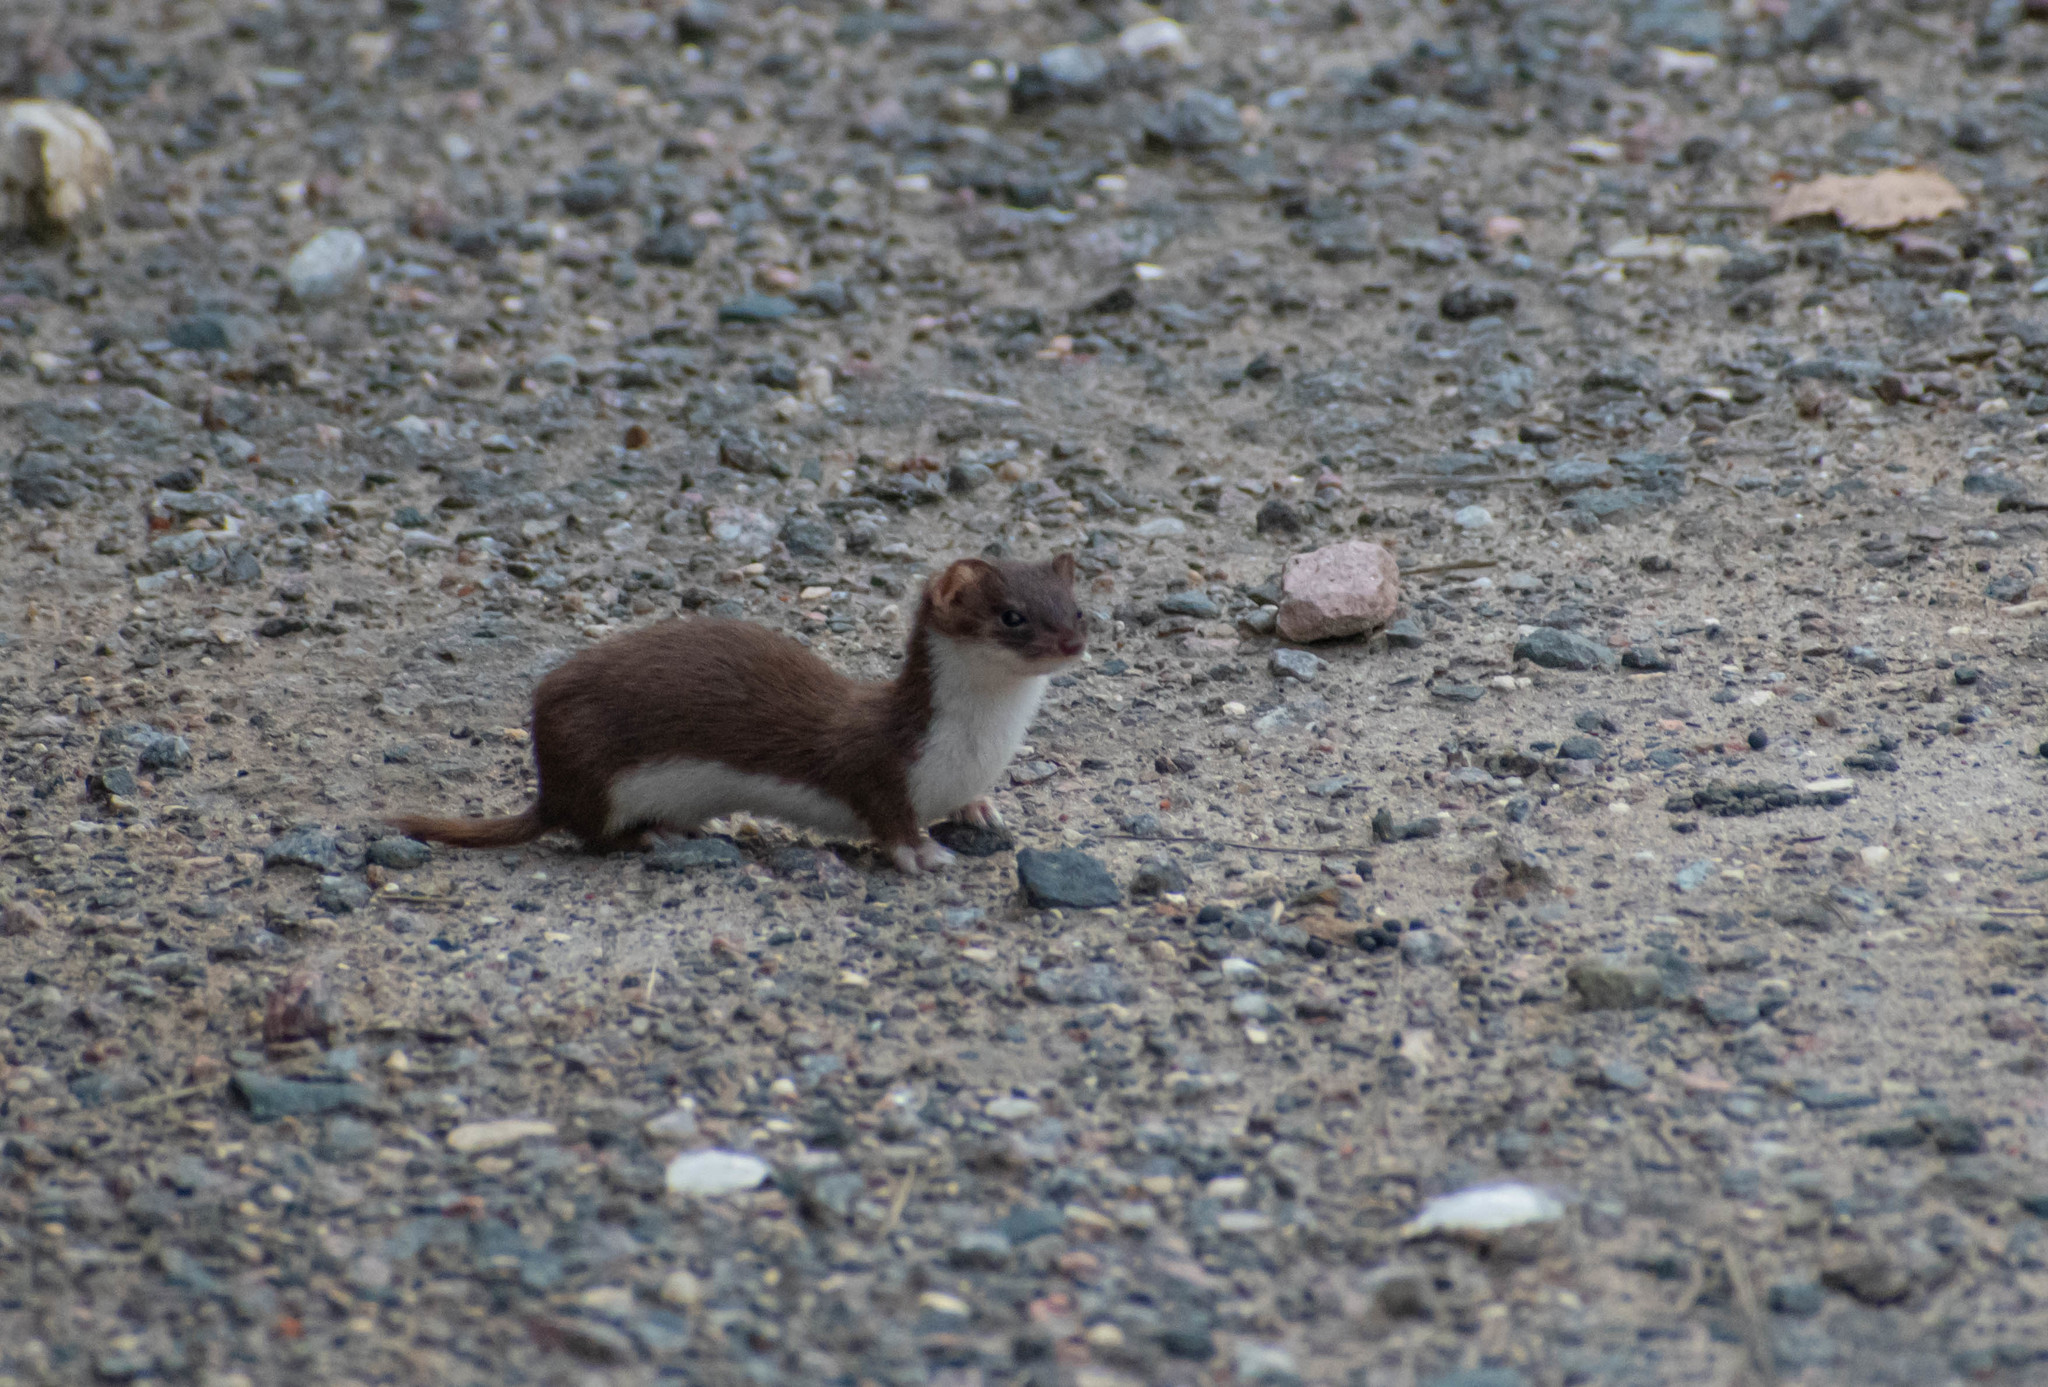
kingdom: Animalia
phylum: Chordata
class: Mammalia
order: Carnivora
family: Mustelidae
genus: Mustela
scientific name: Mustela nivalis
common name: Least weasel
